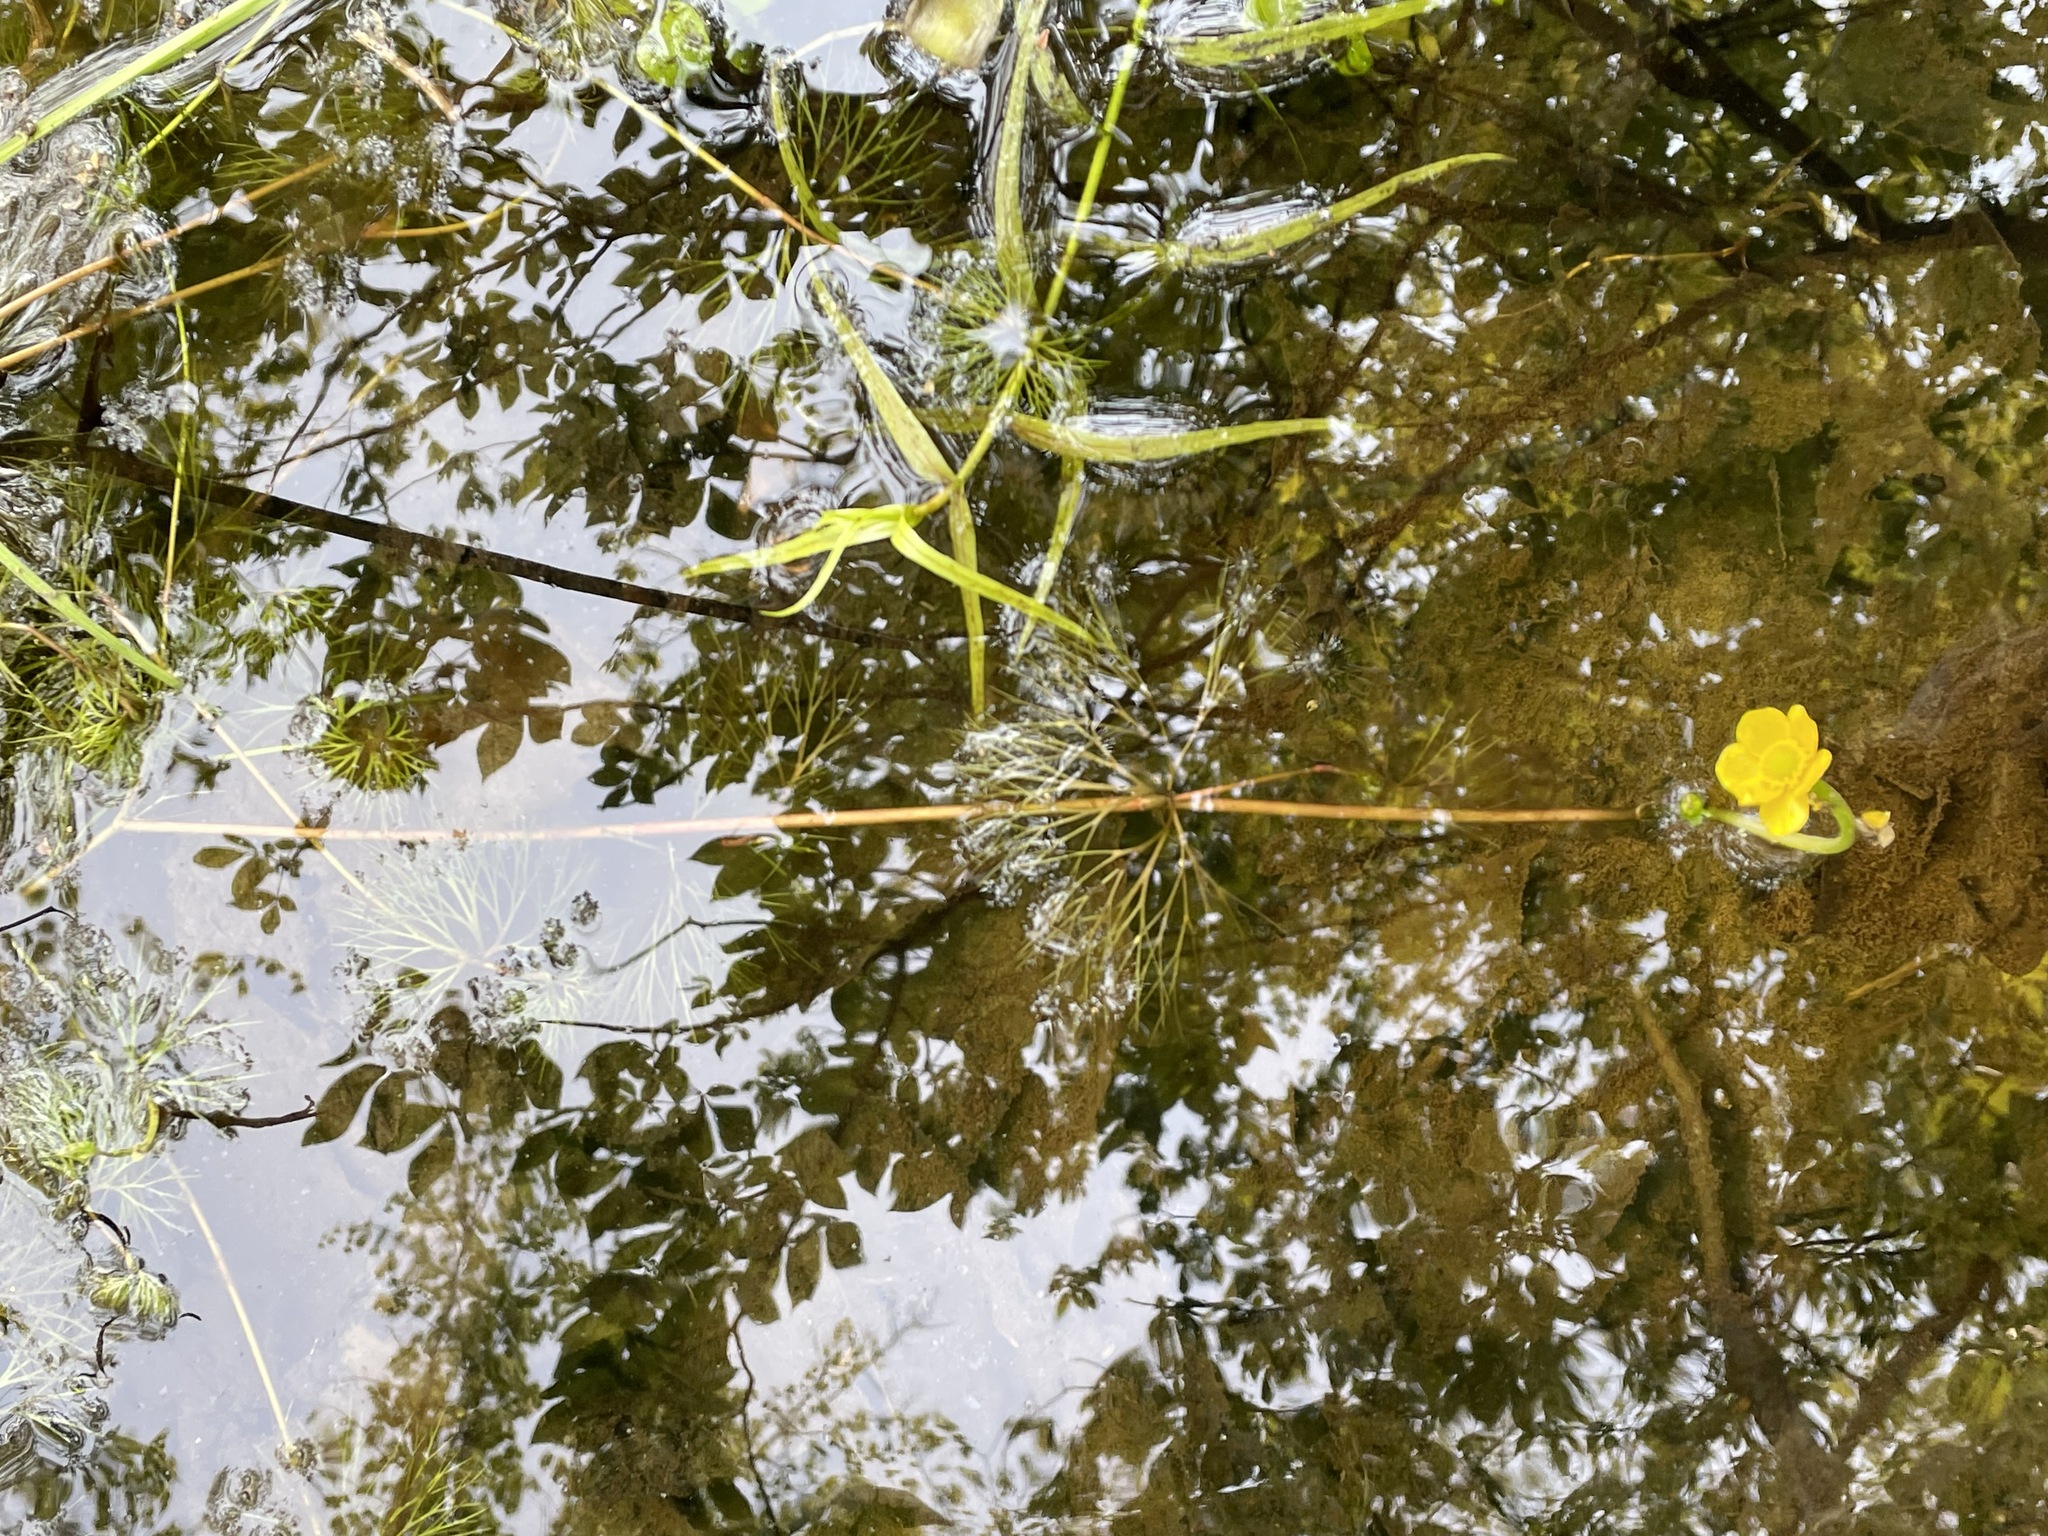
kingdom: Plantae
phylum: Tracheophyta
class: Magnoliopsida
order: Ranunculales
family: Ranunculaceae
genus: Ranunculus
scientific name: Ranunculus flabellaris
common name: Yellow water-crowfoot
